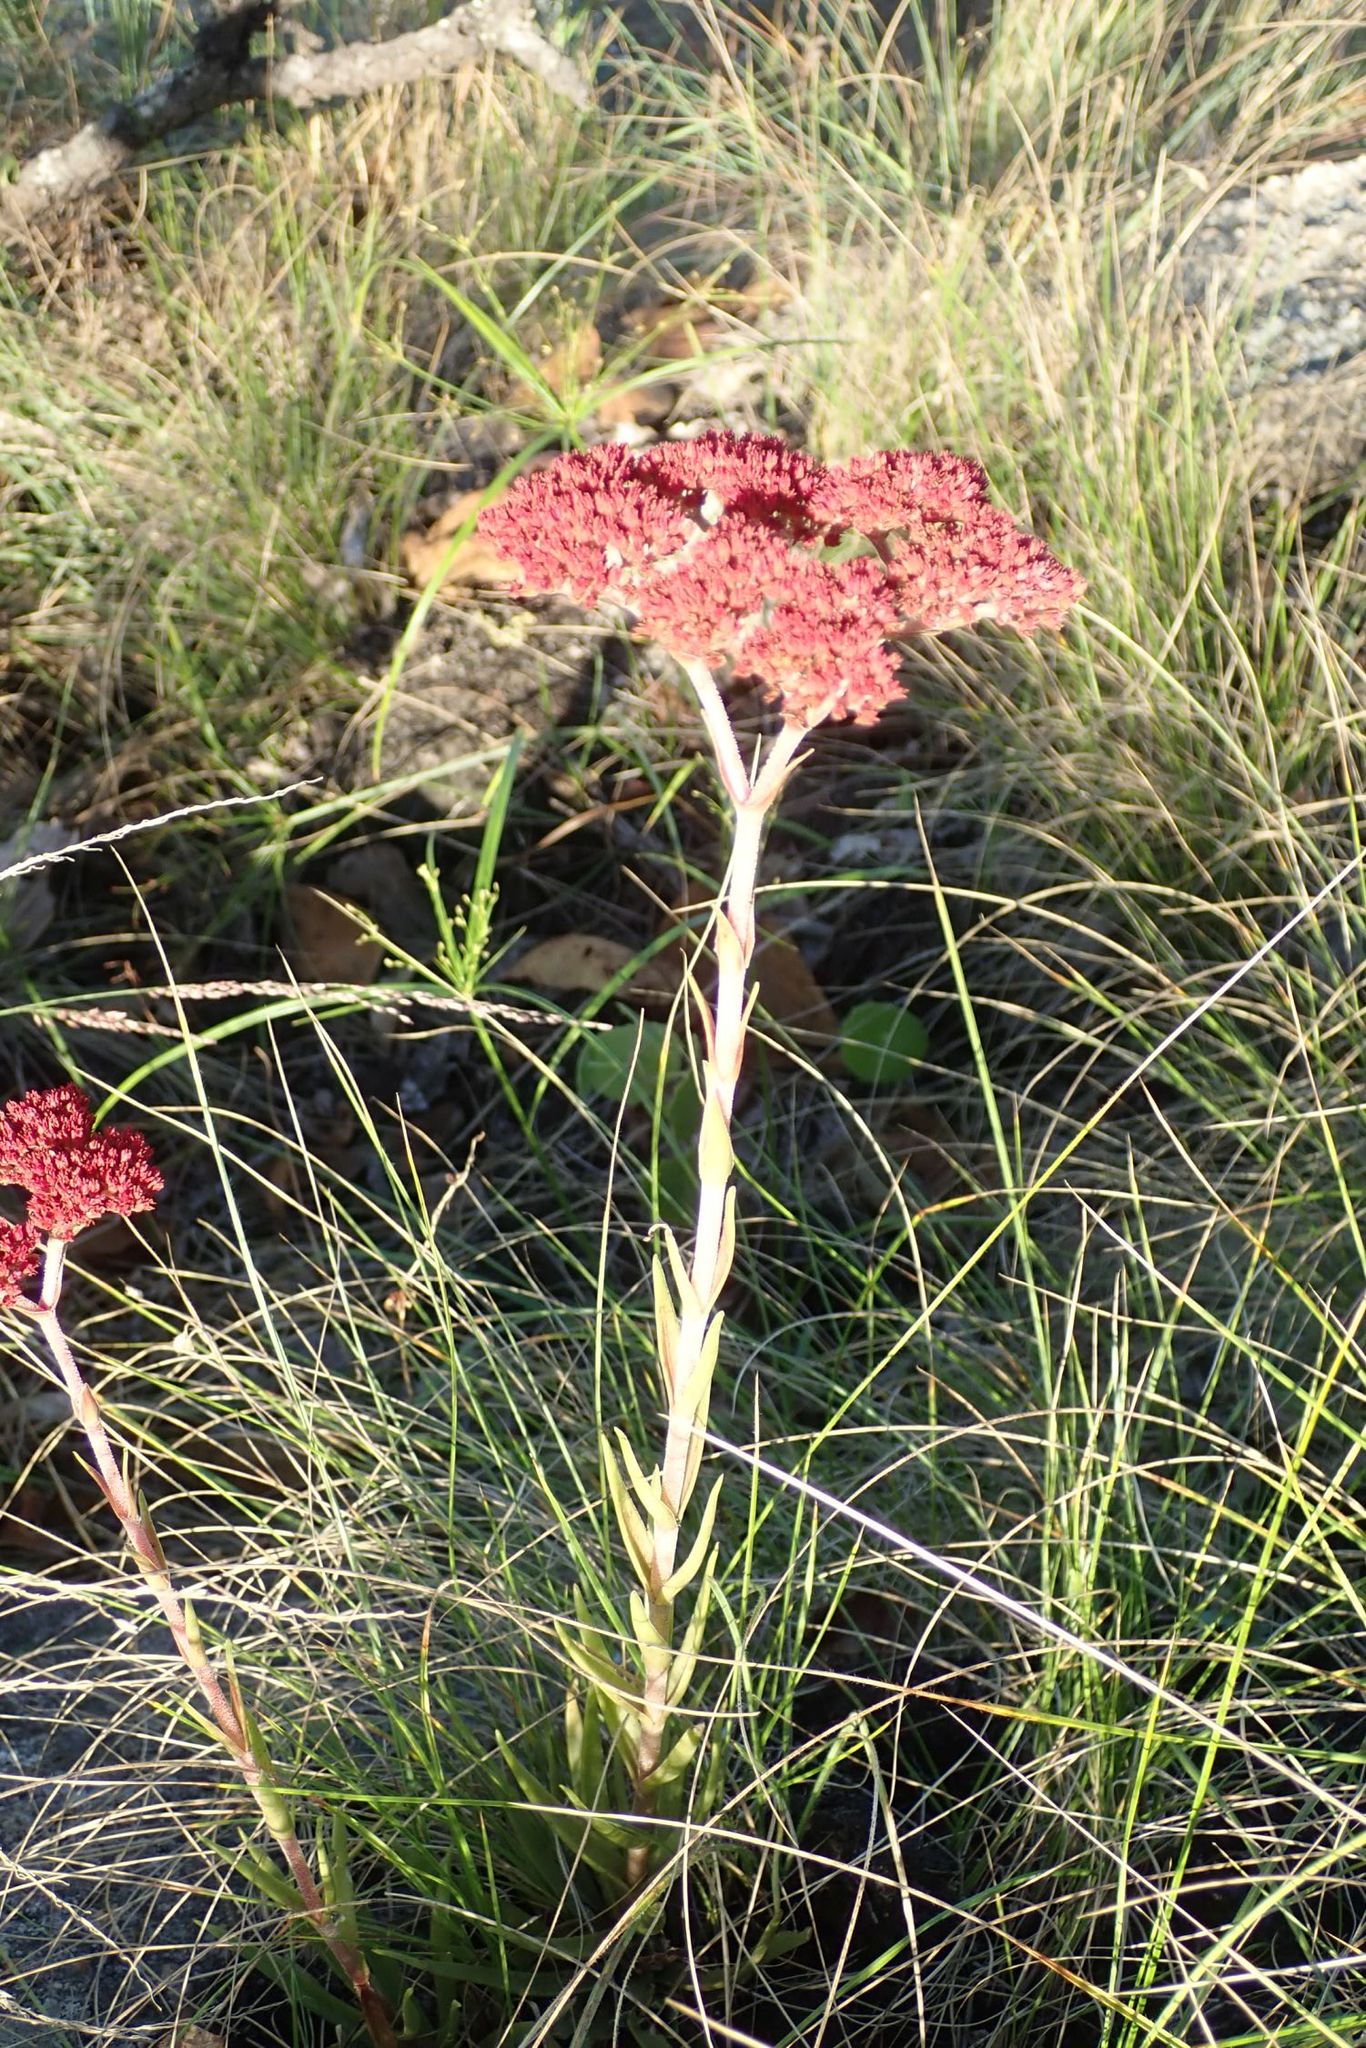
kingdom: Plantae
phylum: Tracheophyta
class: Magnoliopsida
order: Saxifragales
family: Crassulaceae
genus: Crassula
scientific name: Crassula alba
